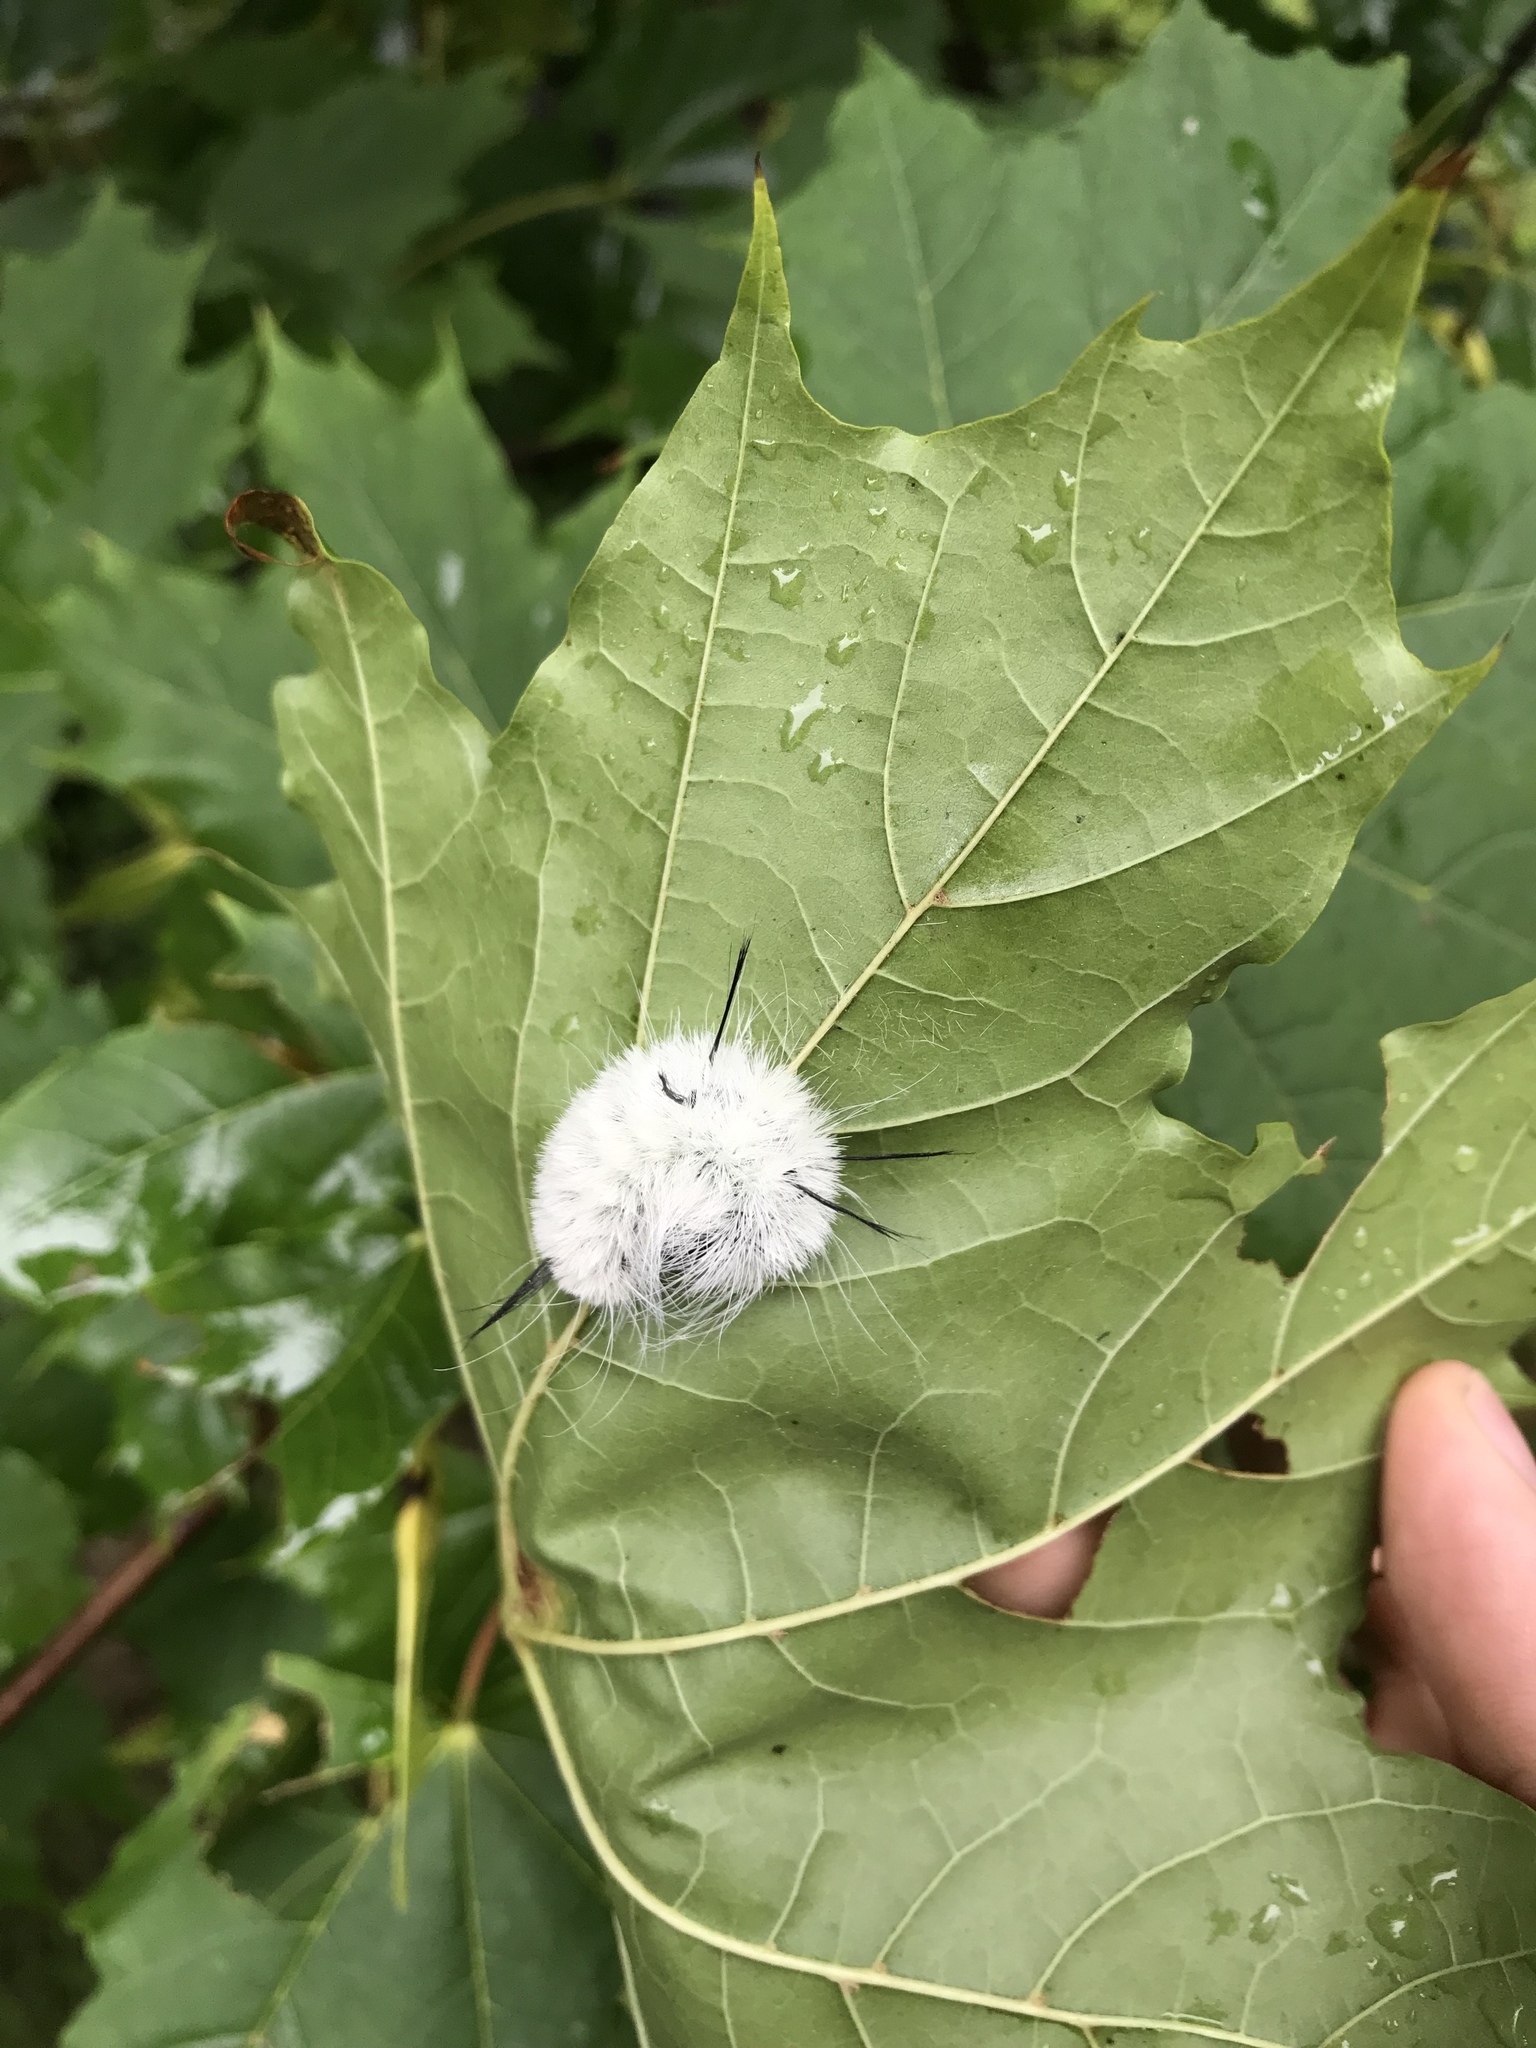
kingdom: Animalia
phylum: Arthropoda
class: Insecta
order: Lepidoptera
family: Noctuidae
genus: Acronicta
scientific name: Acronicta americana
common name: American dagger
